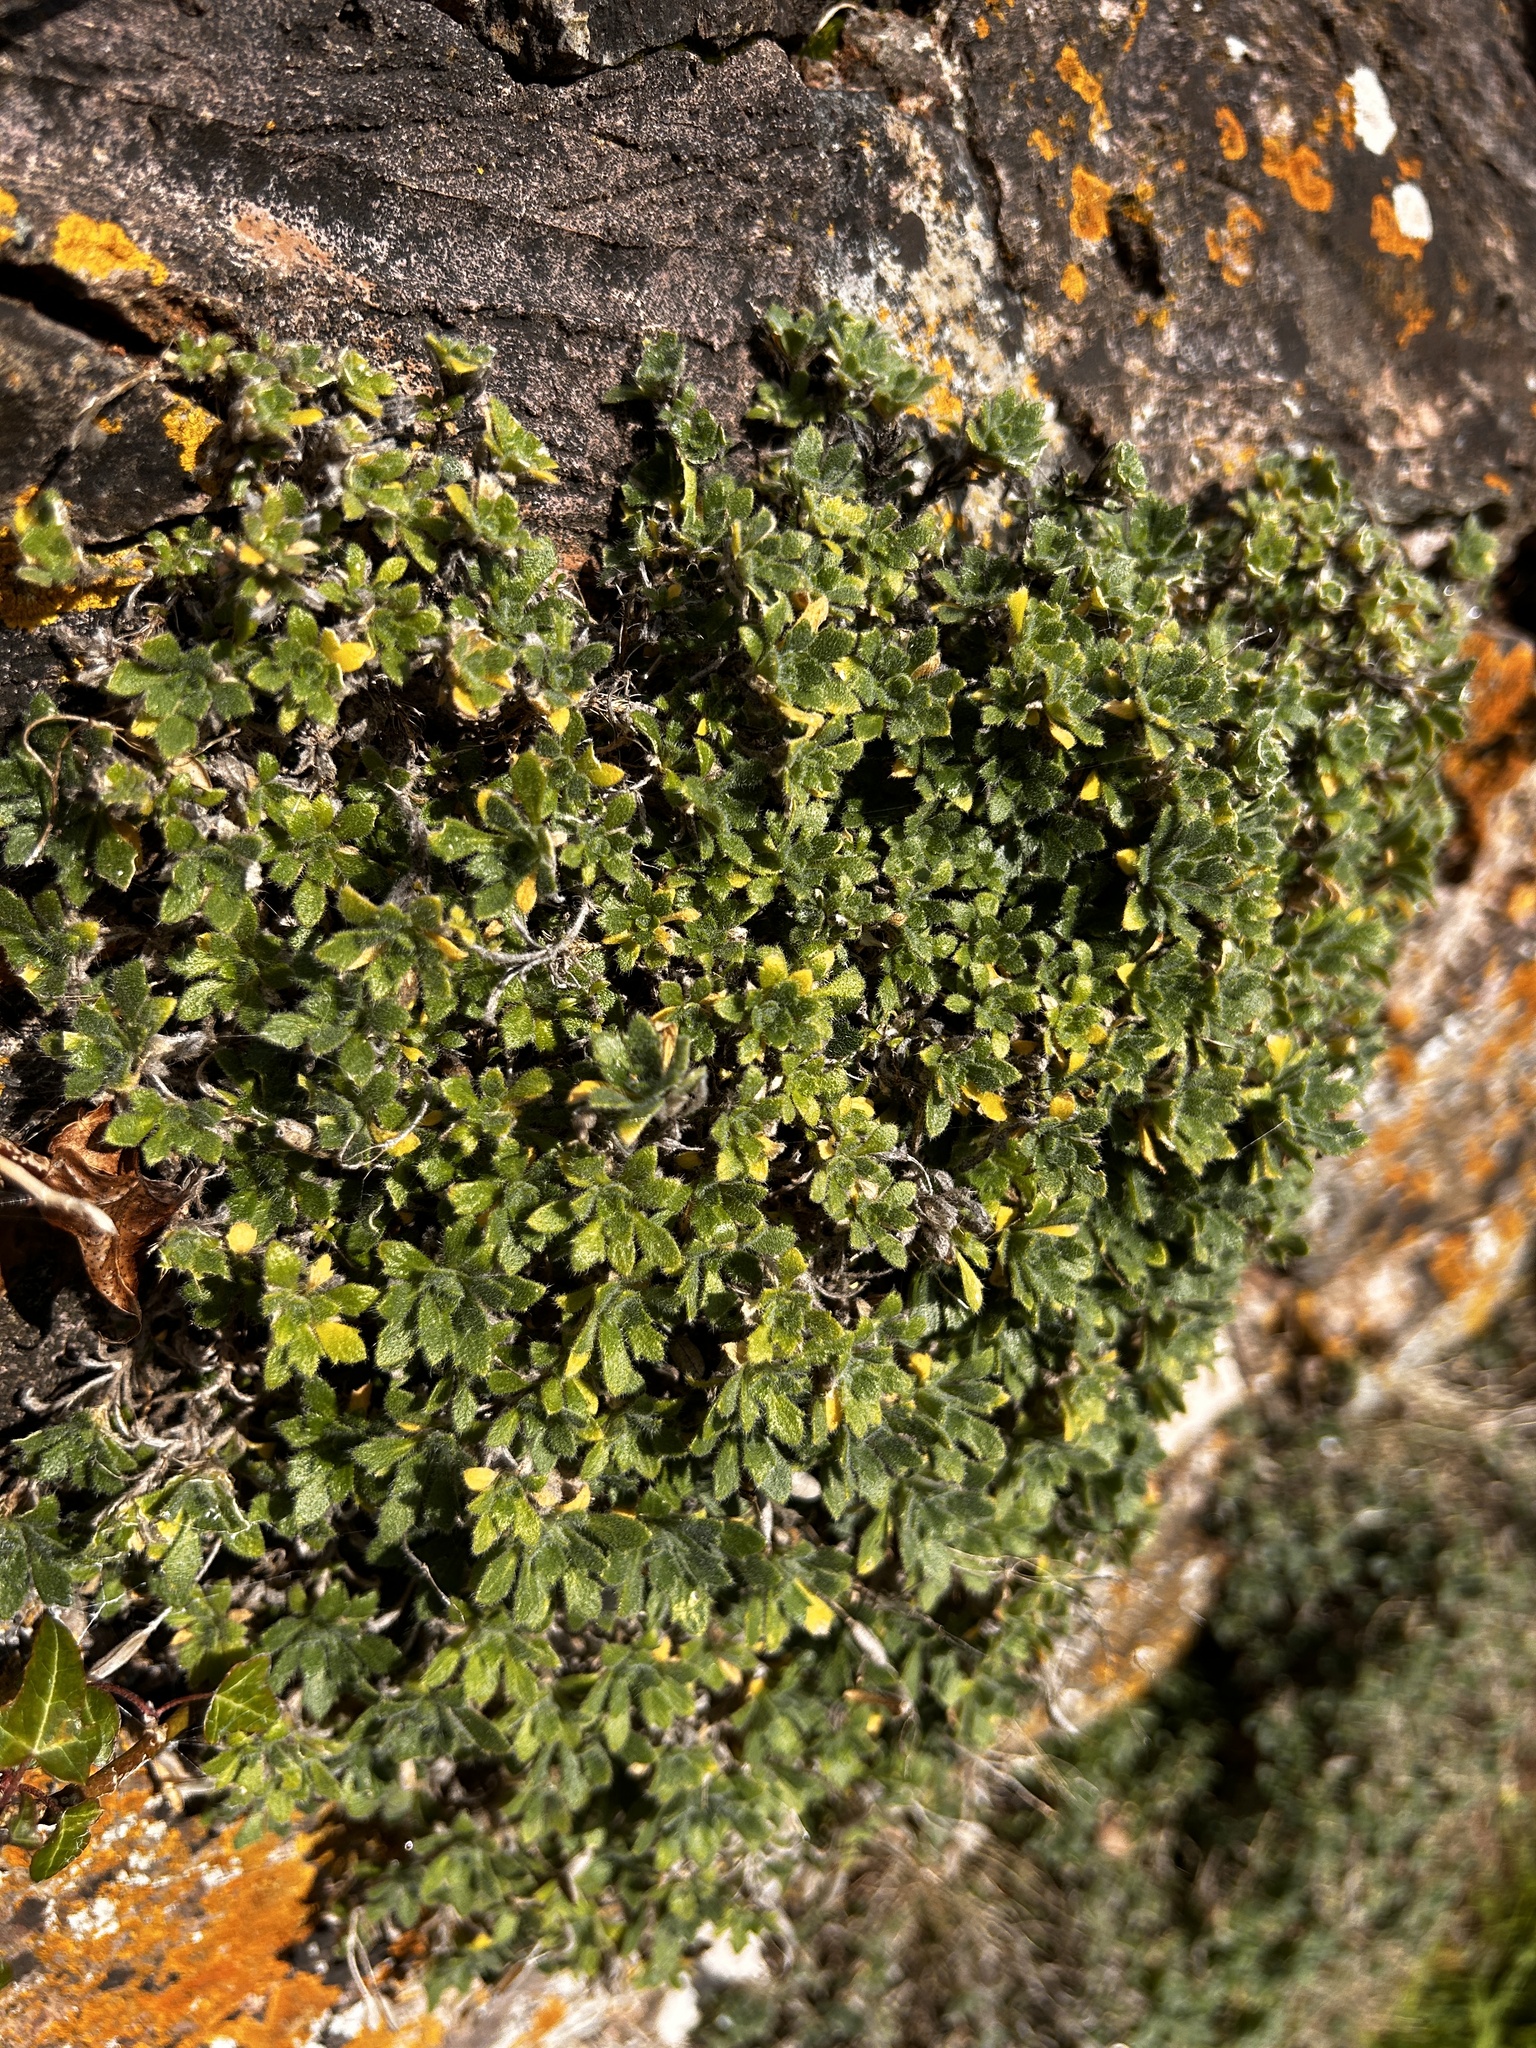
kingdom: Plantae
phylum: Tracheophyta
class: Magnoliopsida
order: Brassicales
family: Brassicaceae
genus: Aubrieta
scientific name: Aubrieta deltoidea
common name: Aubretia
